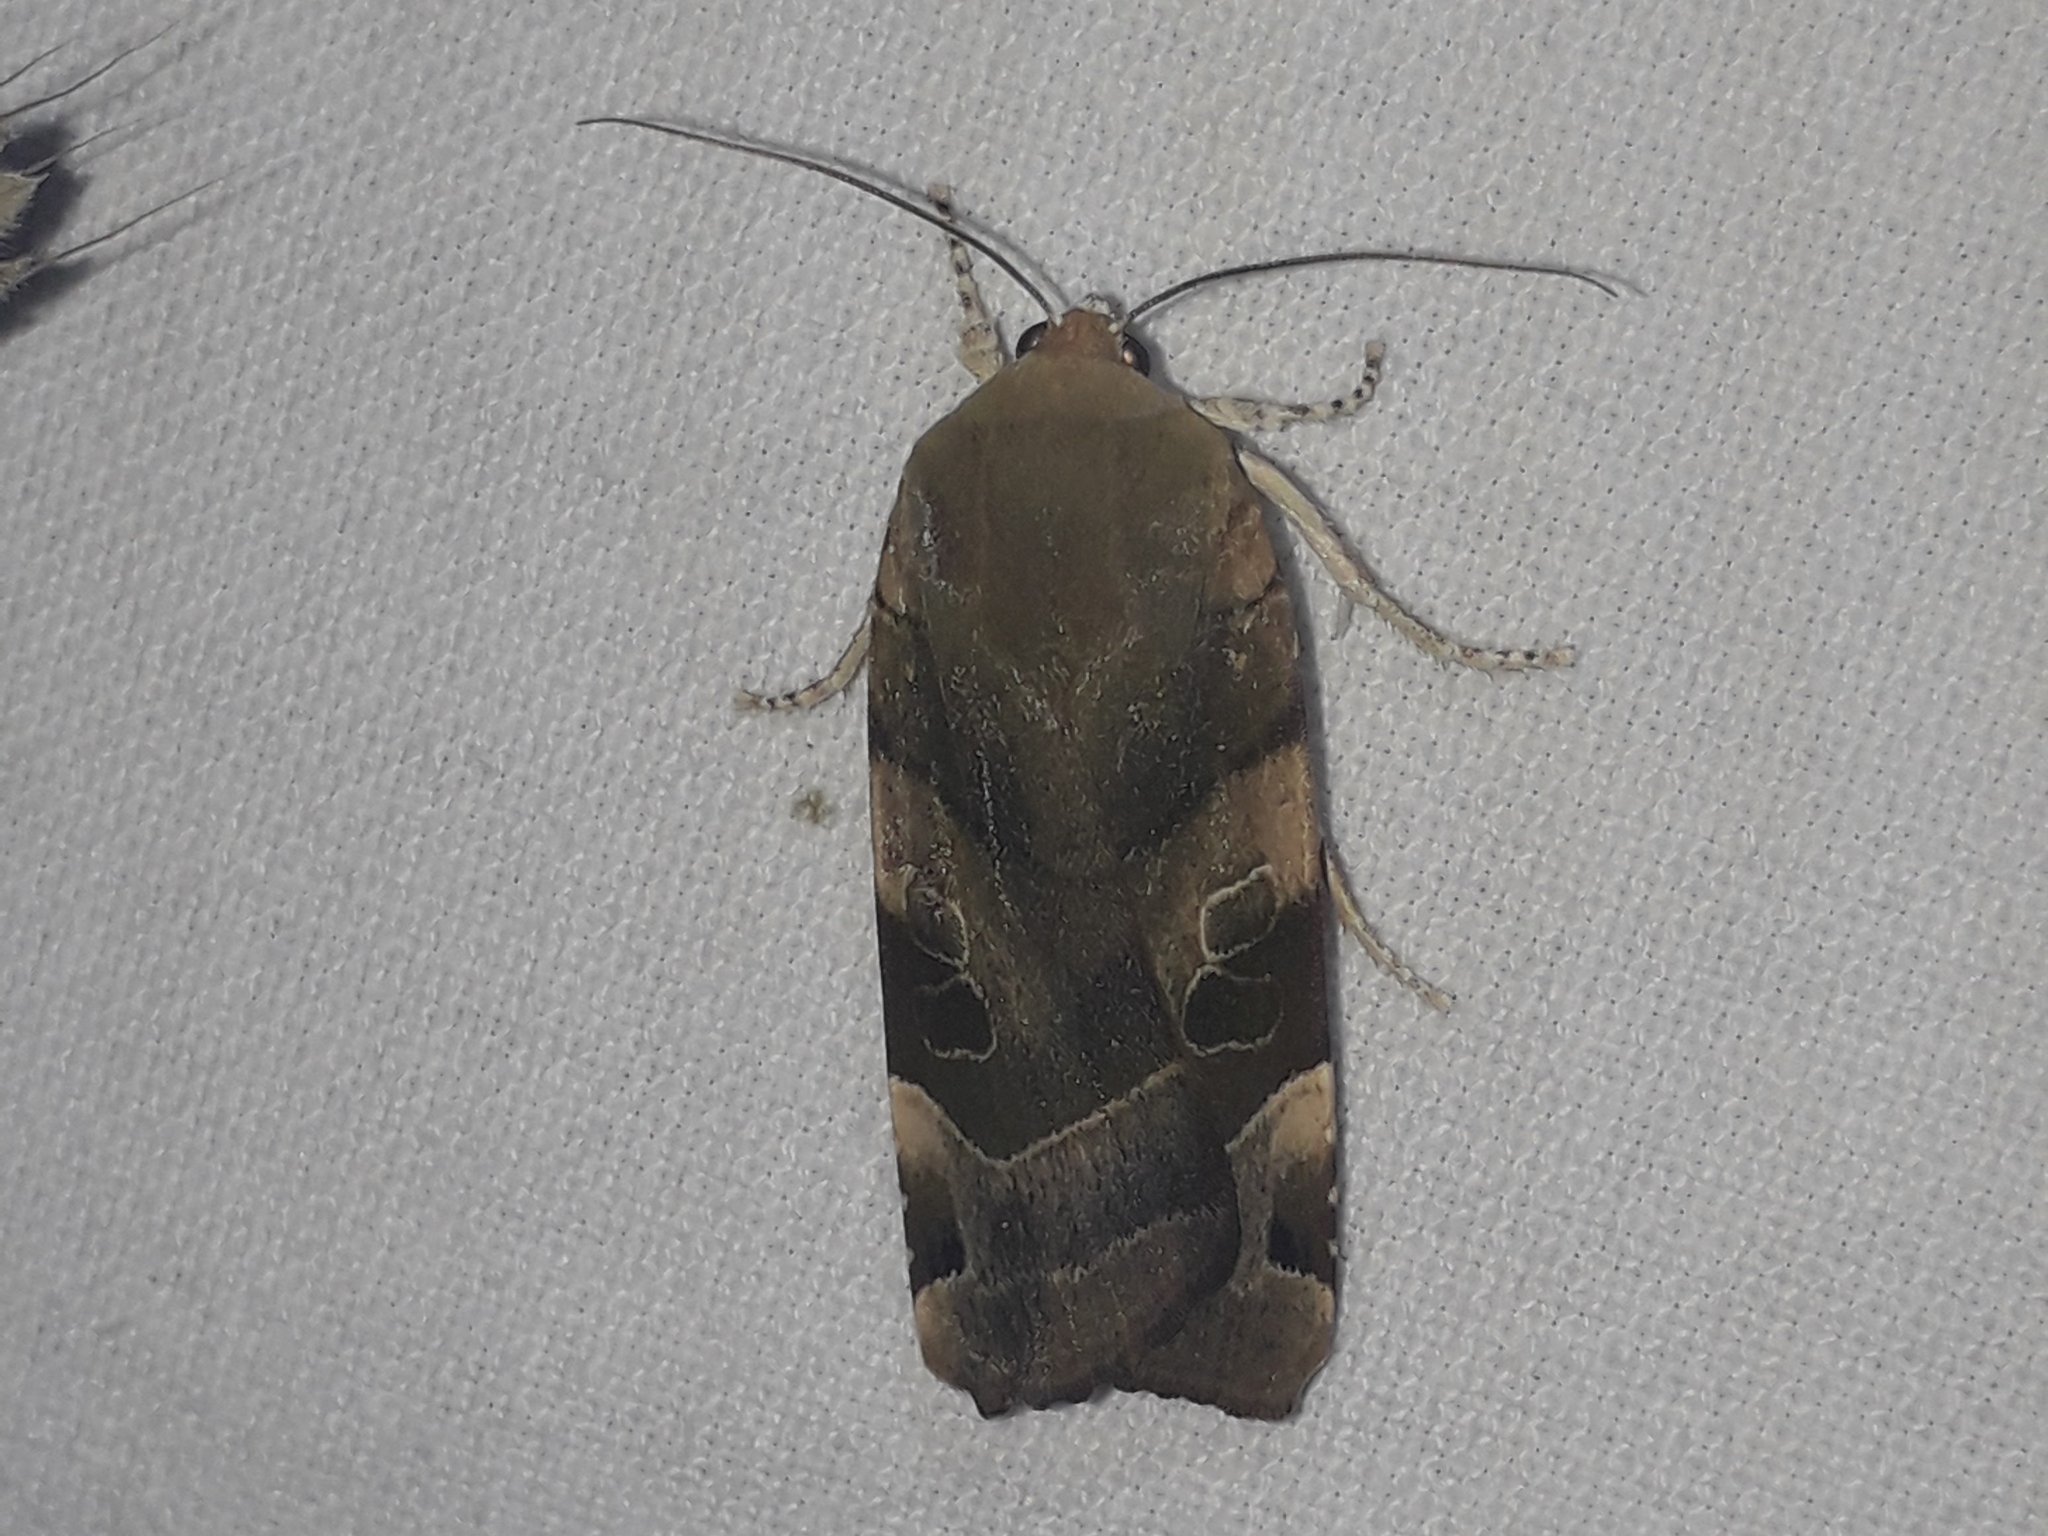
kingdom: Animalia
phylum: Arthropoda
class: Insecta
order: Lepidoptera
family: Noctuidae
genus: Noctua
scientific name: Noctua fimbriata
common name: Broad-bordered yellow underwing
